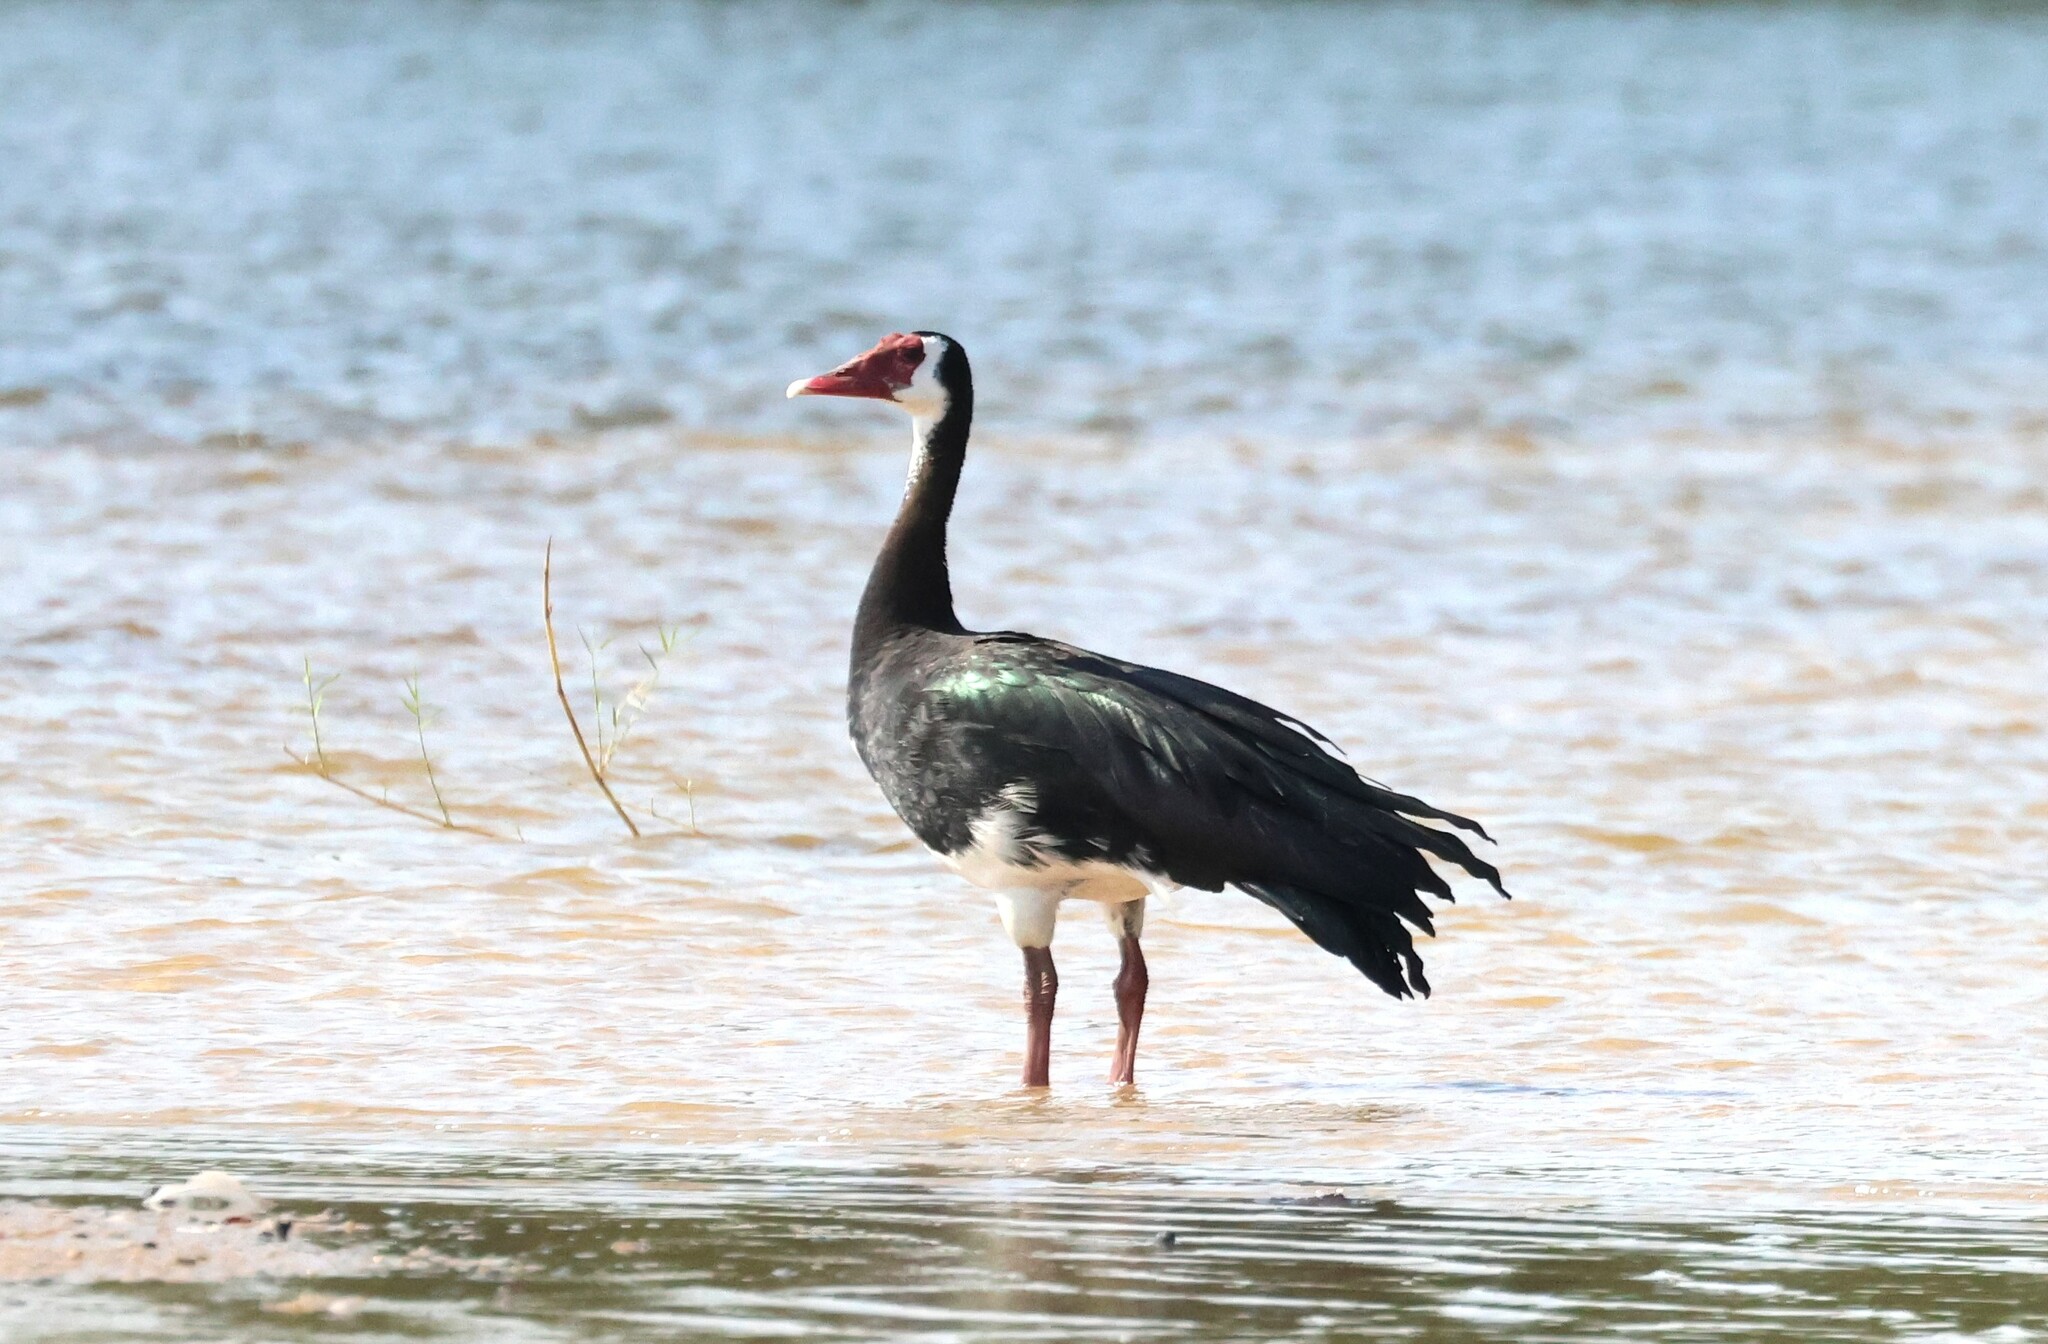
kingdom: Animalia
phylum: Chordata
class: Aves
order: Anseriformes
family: Anatidae
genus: Plectropterus
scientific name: Plectropterus gambensis
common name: Spur-winged goose
